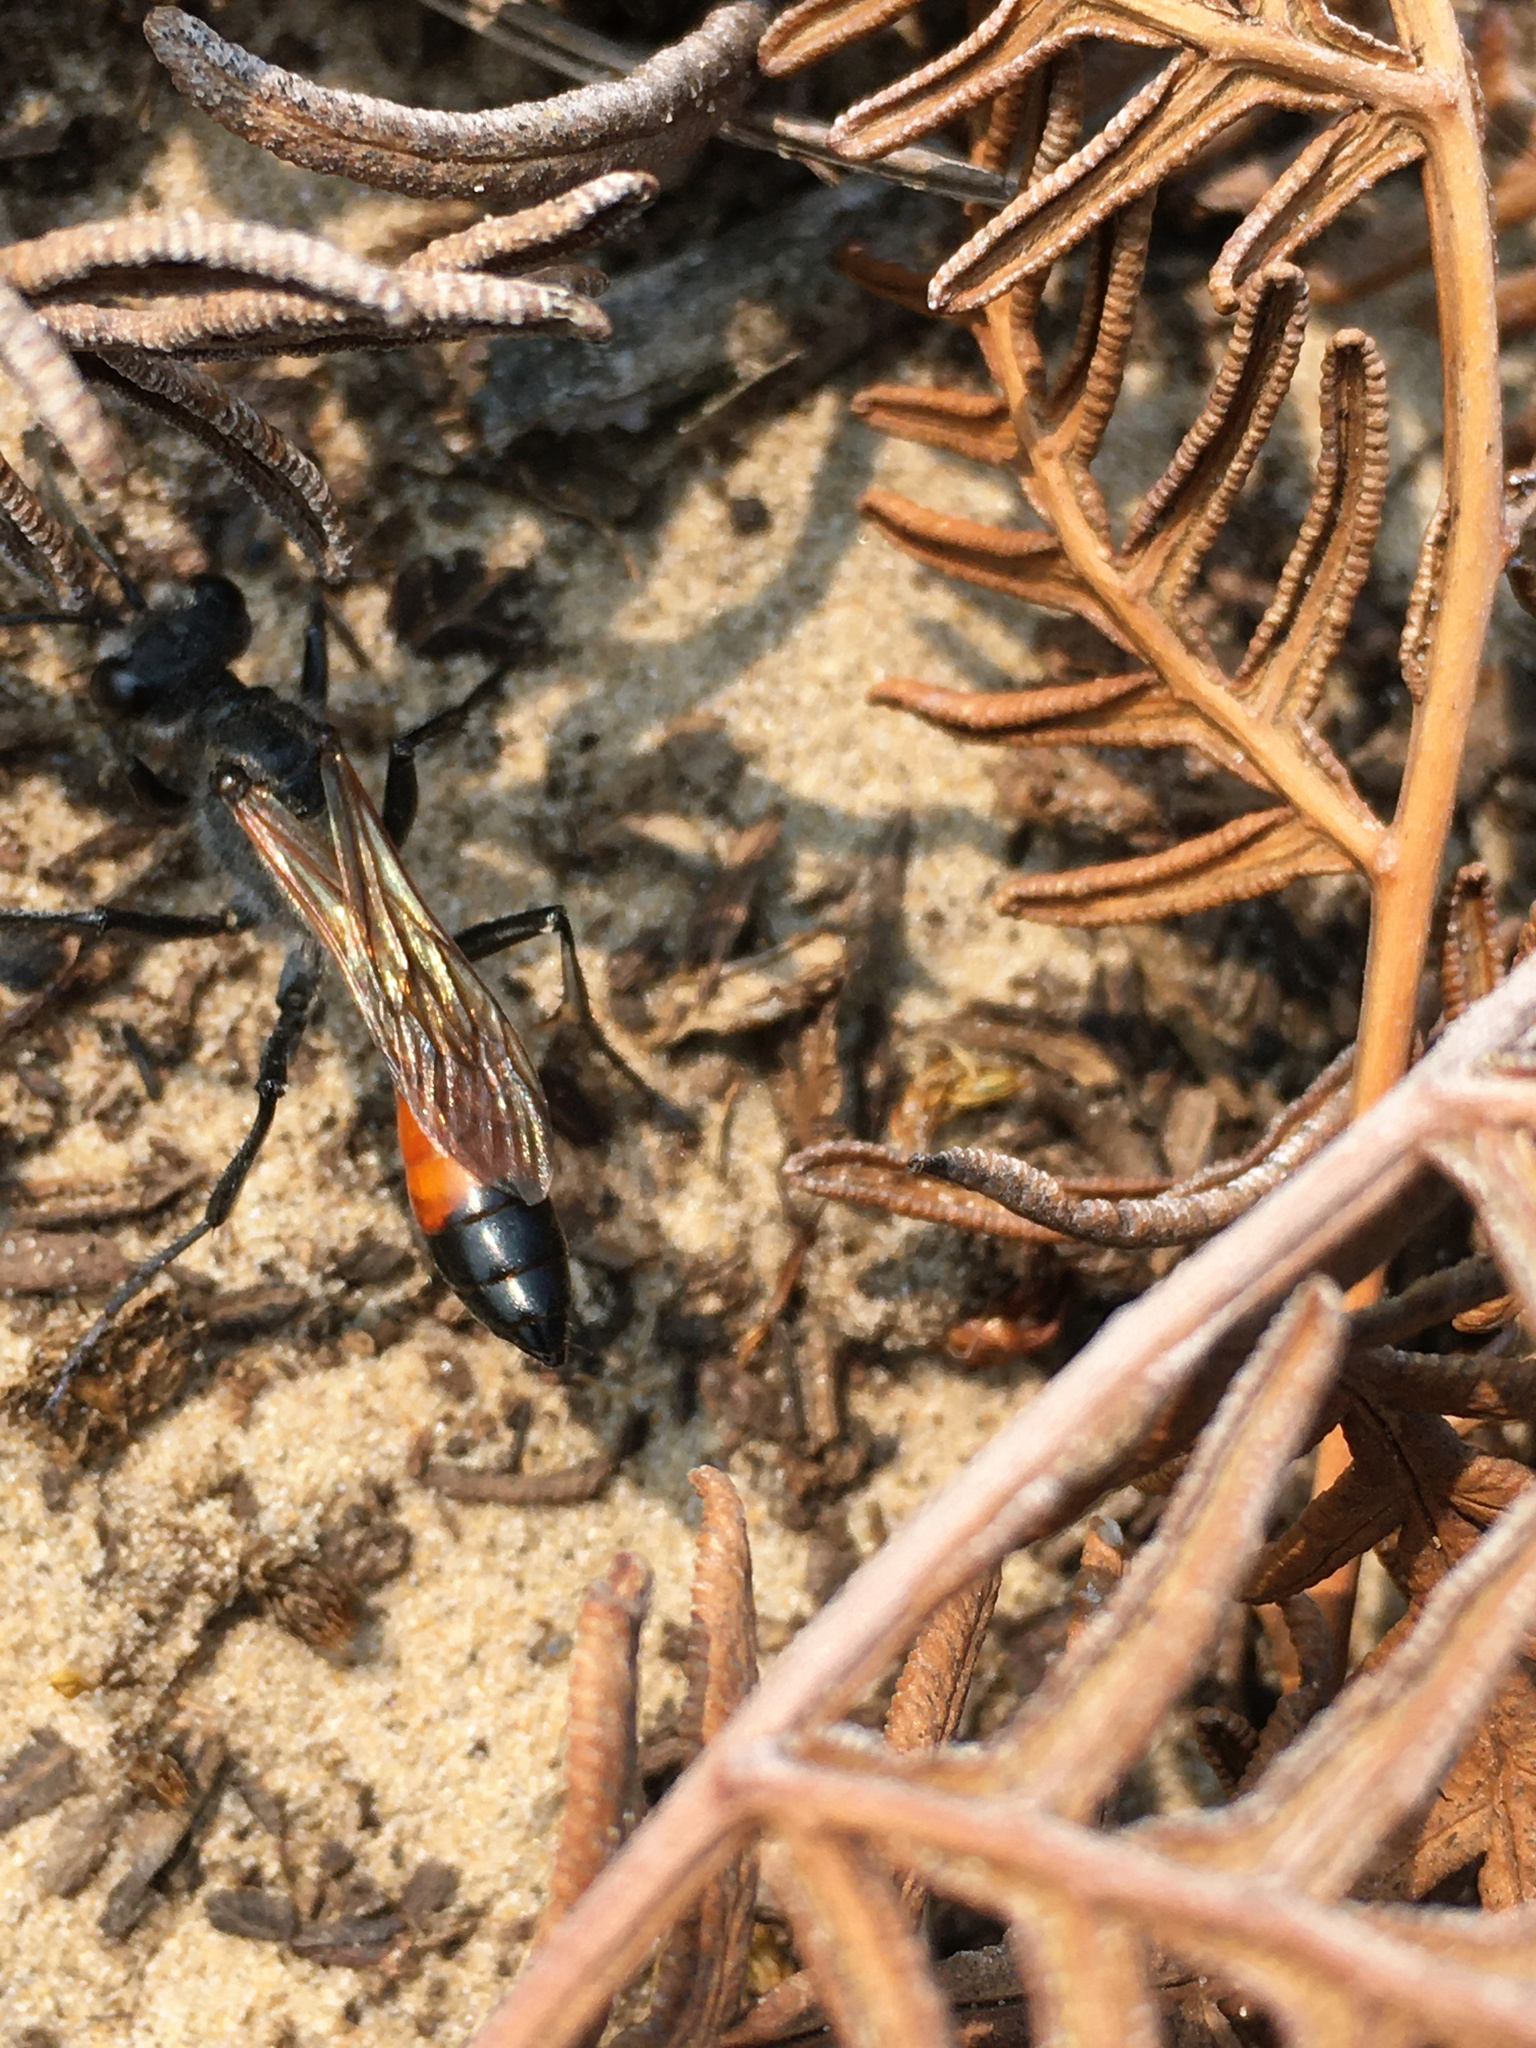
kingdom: Animalia
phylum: Arthropoda
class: Insecta
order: Hymenoptera
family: Sphecidae
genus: Podalonia
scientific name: Podalonia tydei
